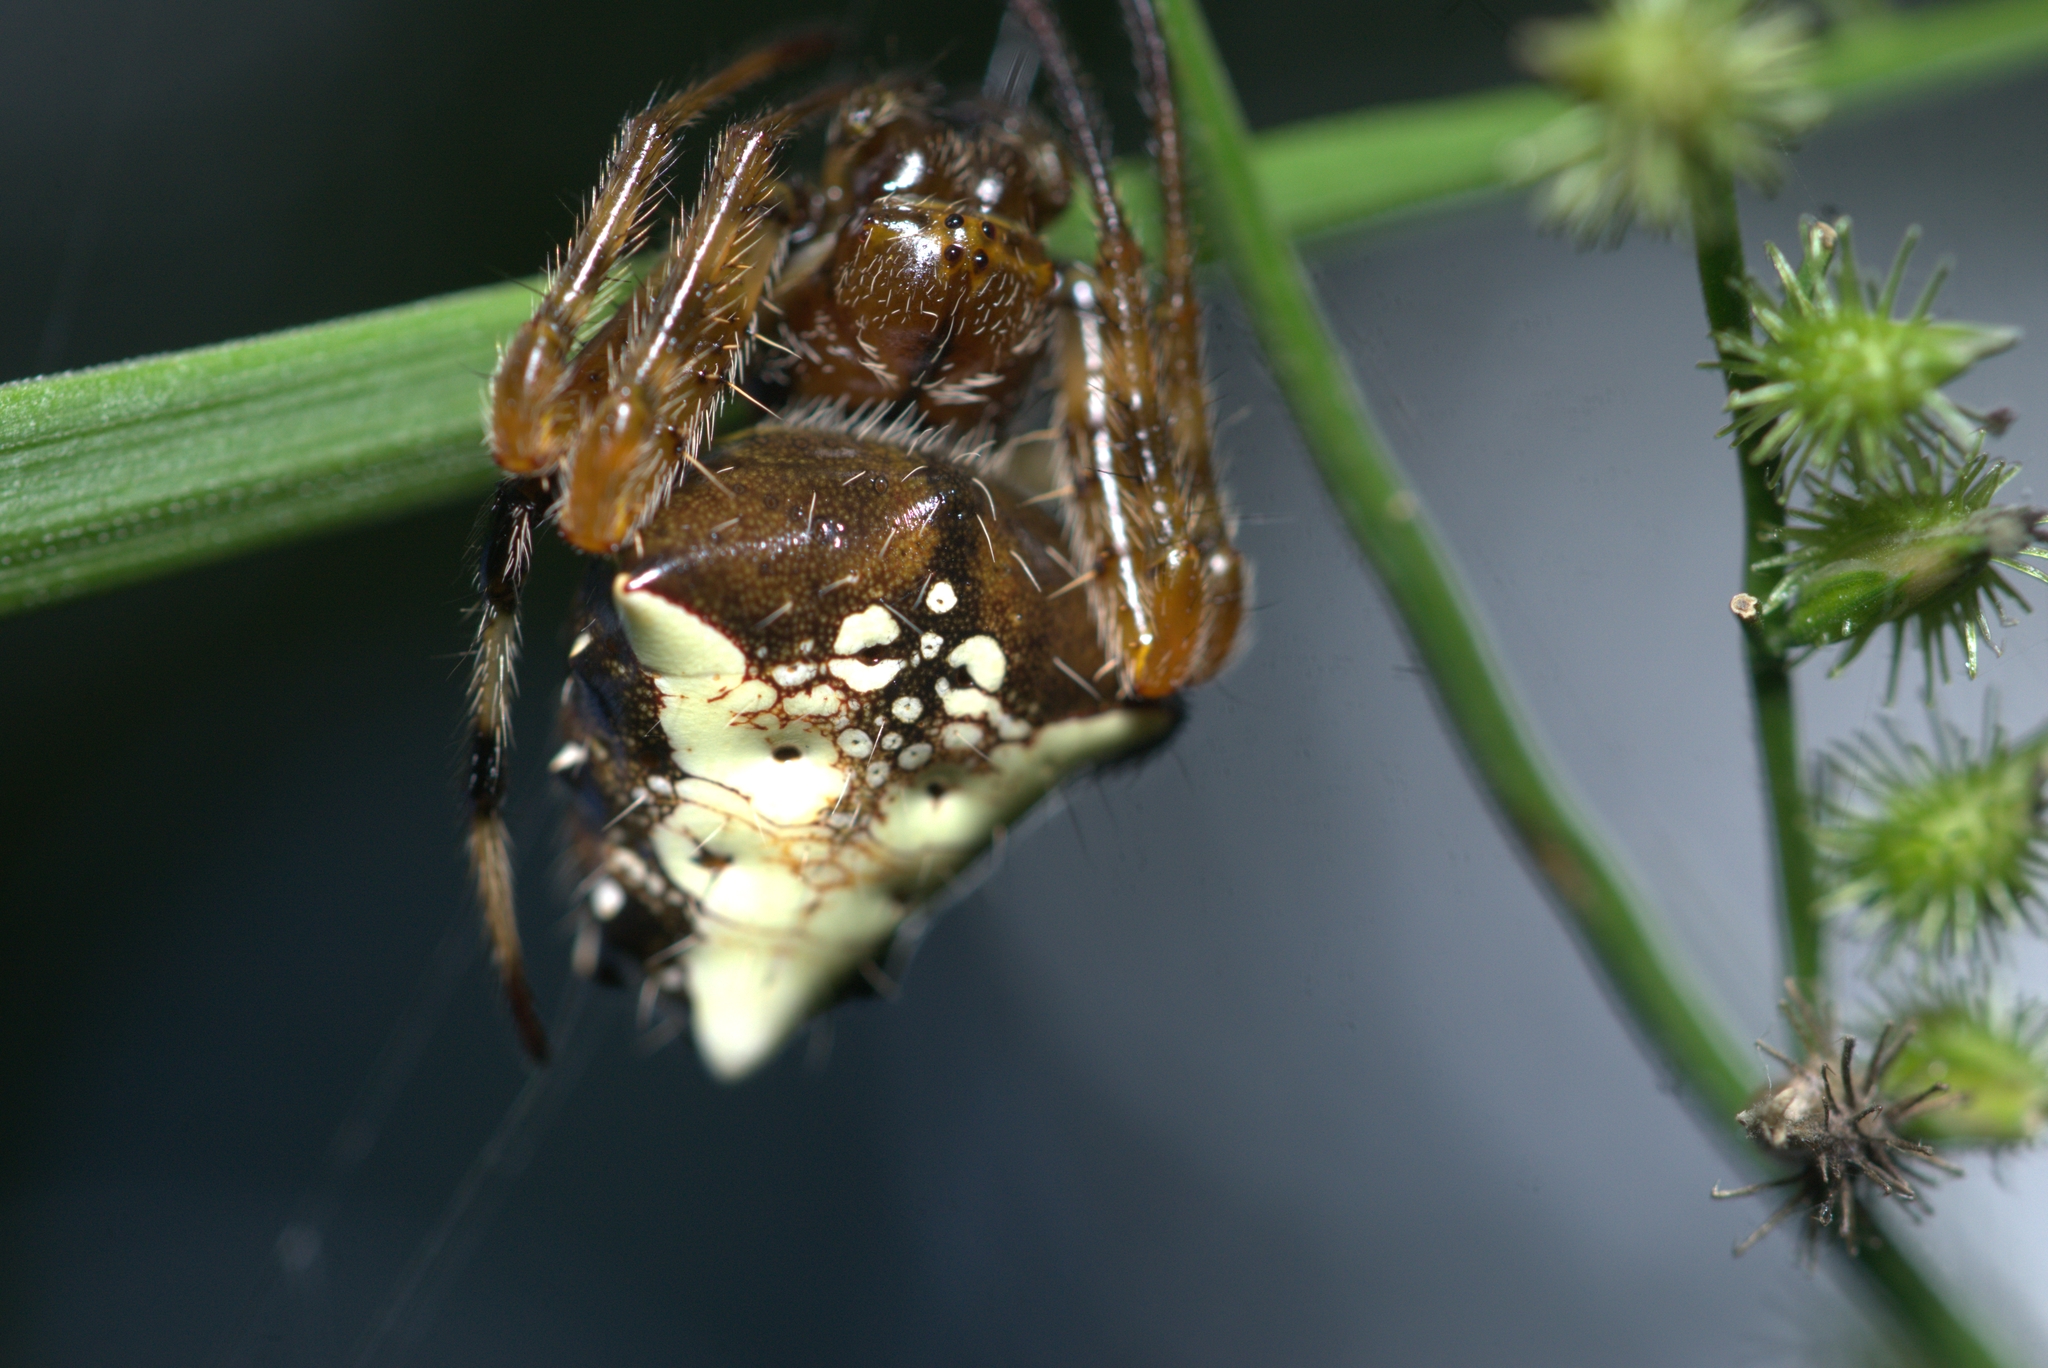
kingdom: Animalia
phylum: Arthropoda
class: Arachnida
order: Araneae
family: Araneidae
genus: Verrucosa
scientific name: Verrucosa meridionalis
